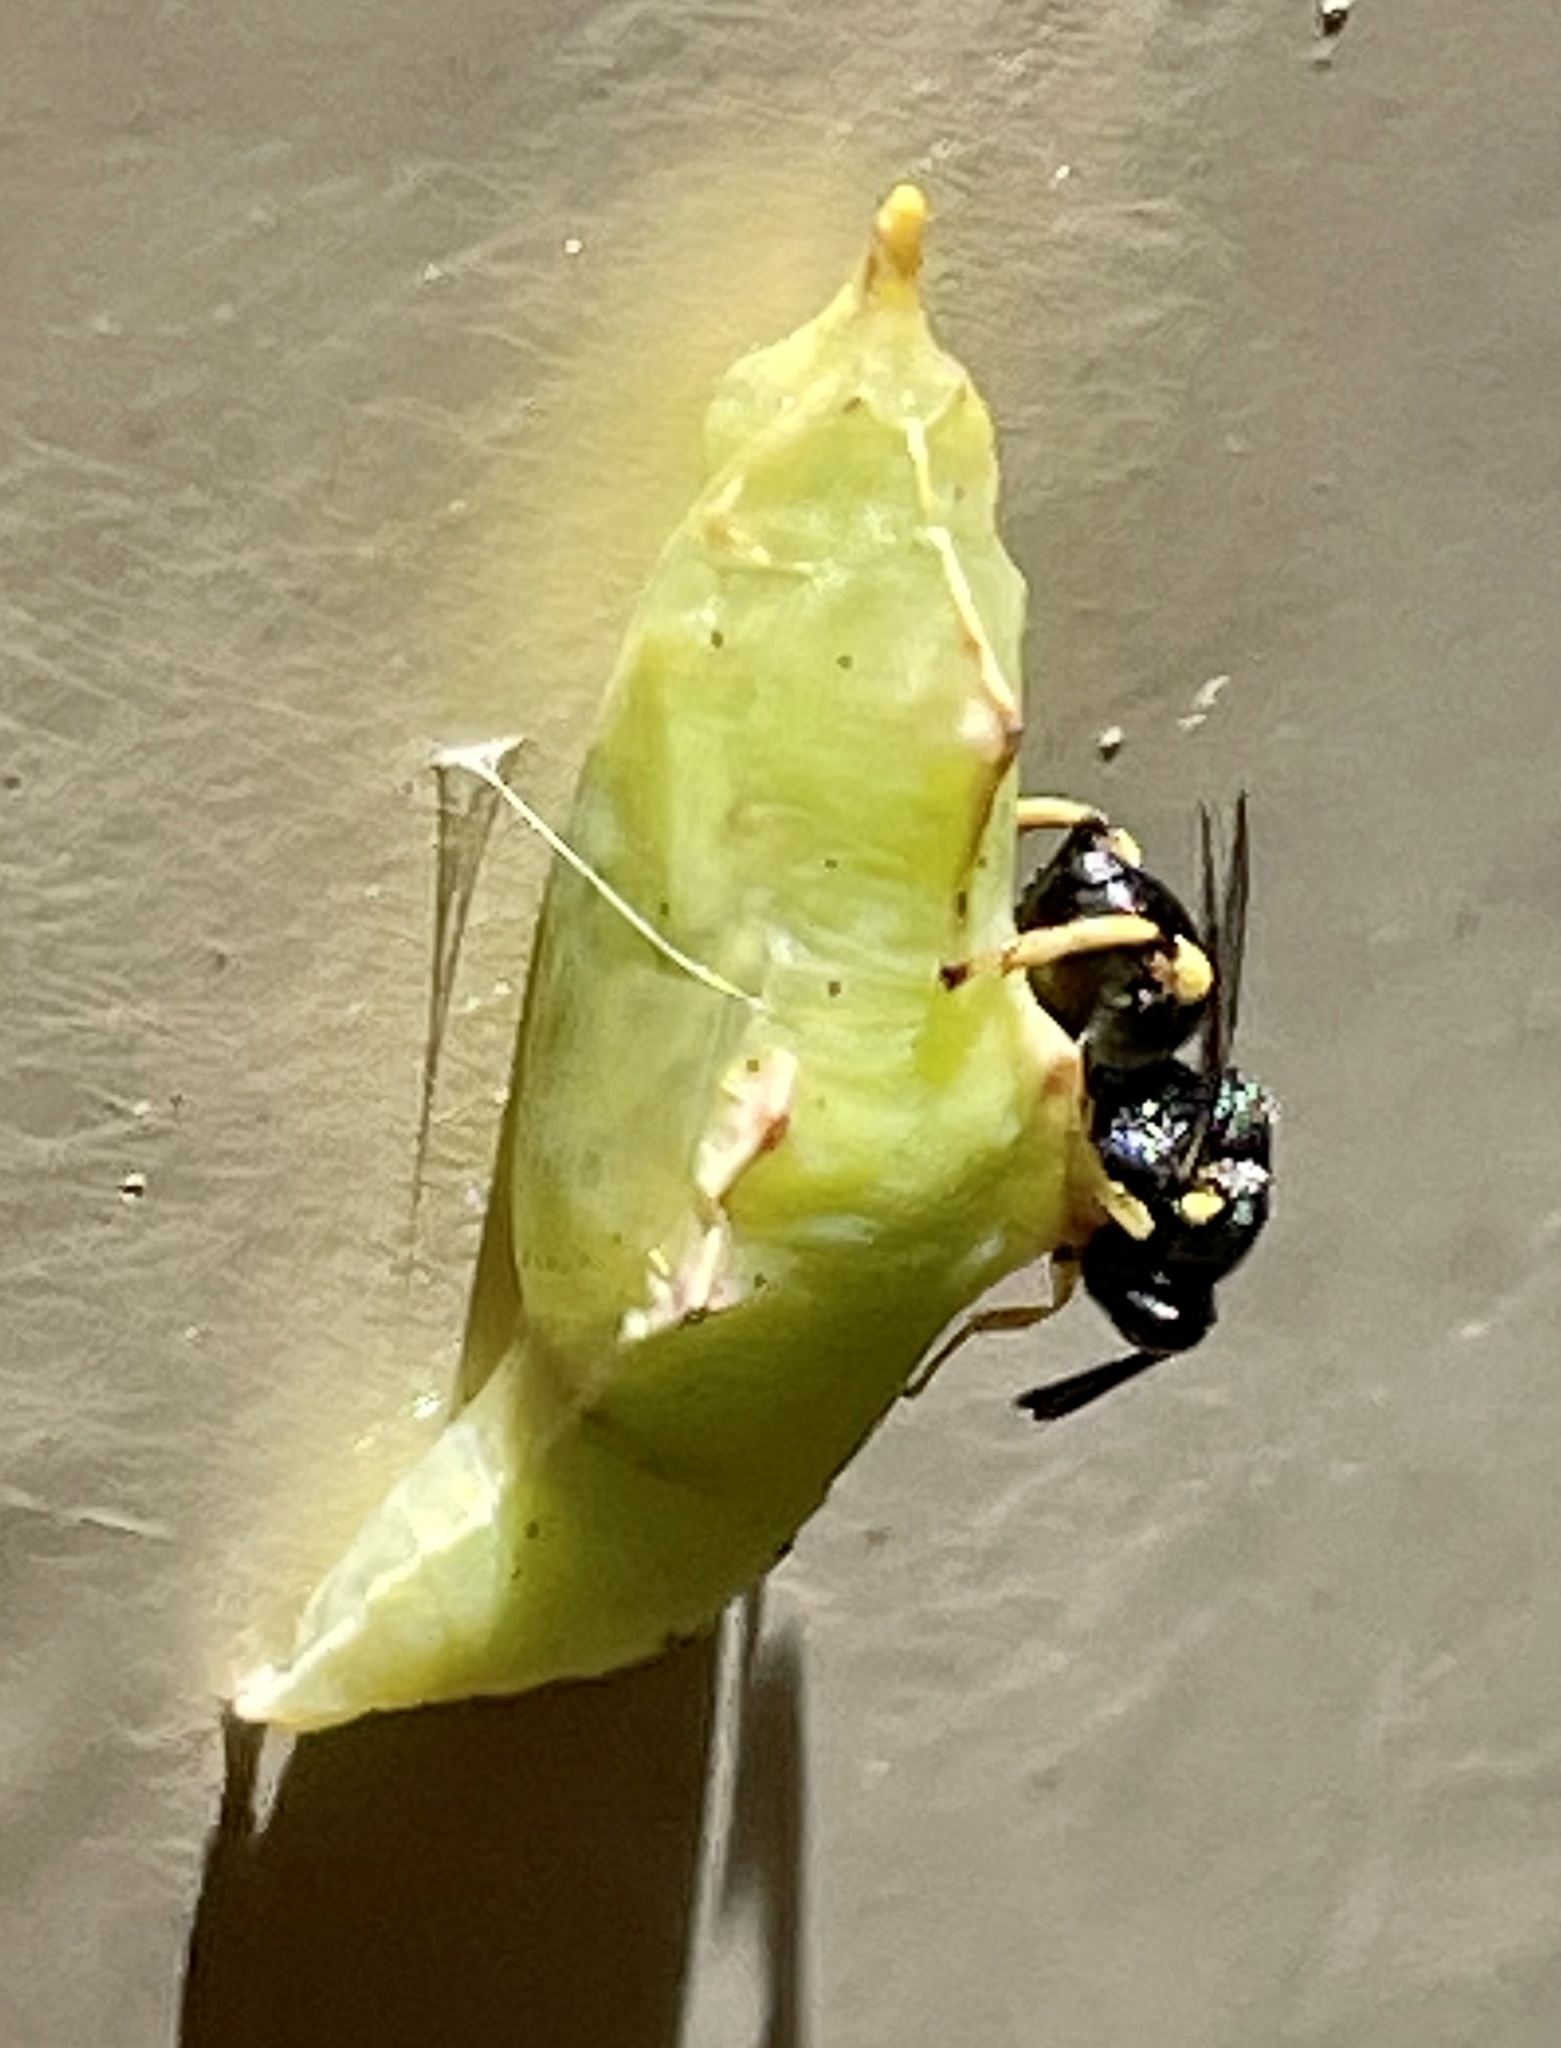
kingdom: Animalia
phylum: Arthropoda
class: Insecta
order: Lepidoptera
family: Pieridae
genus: Pieris
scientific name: Pieris rapae
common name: Small white
